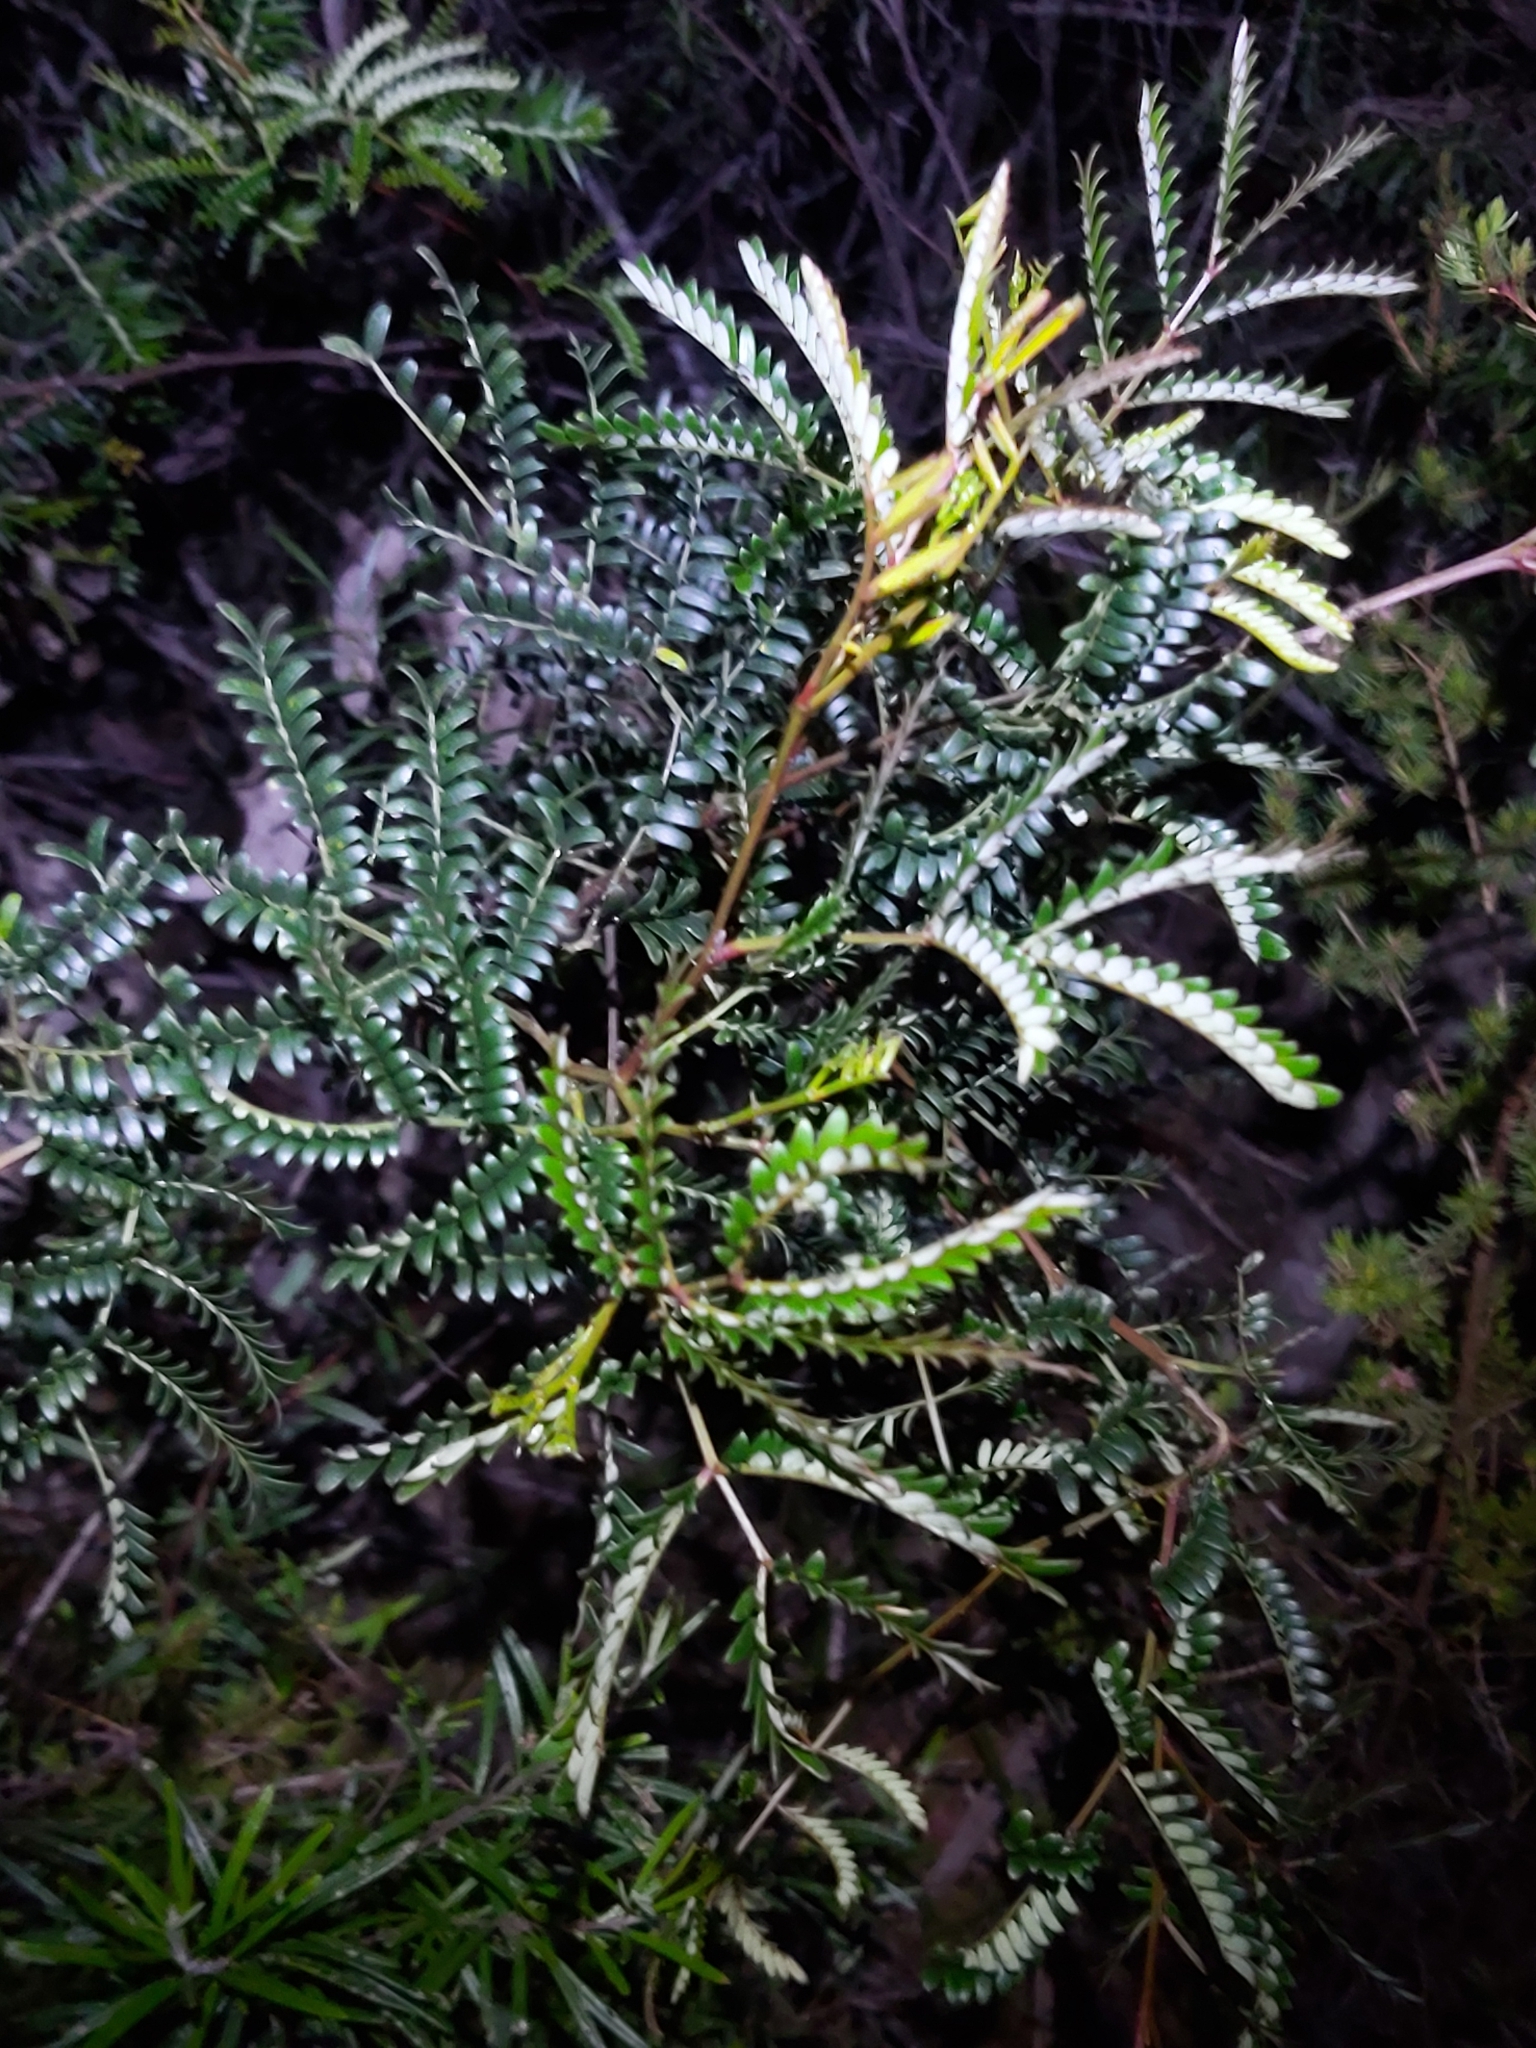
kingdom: Plantae
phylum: Tracheophyta
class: Magnoliopsida
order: Fabales
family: Fabaceae
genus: Acacia
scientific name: Acacia terminalis
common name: Cedar wattle
